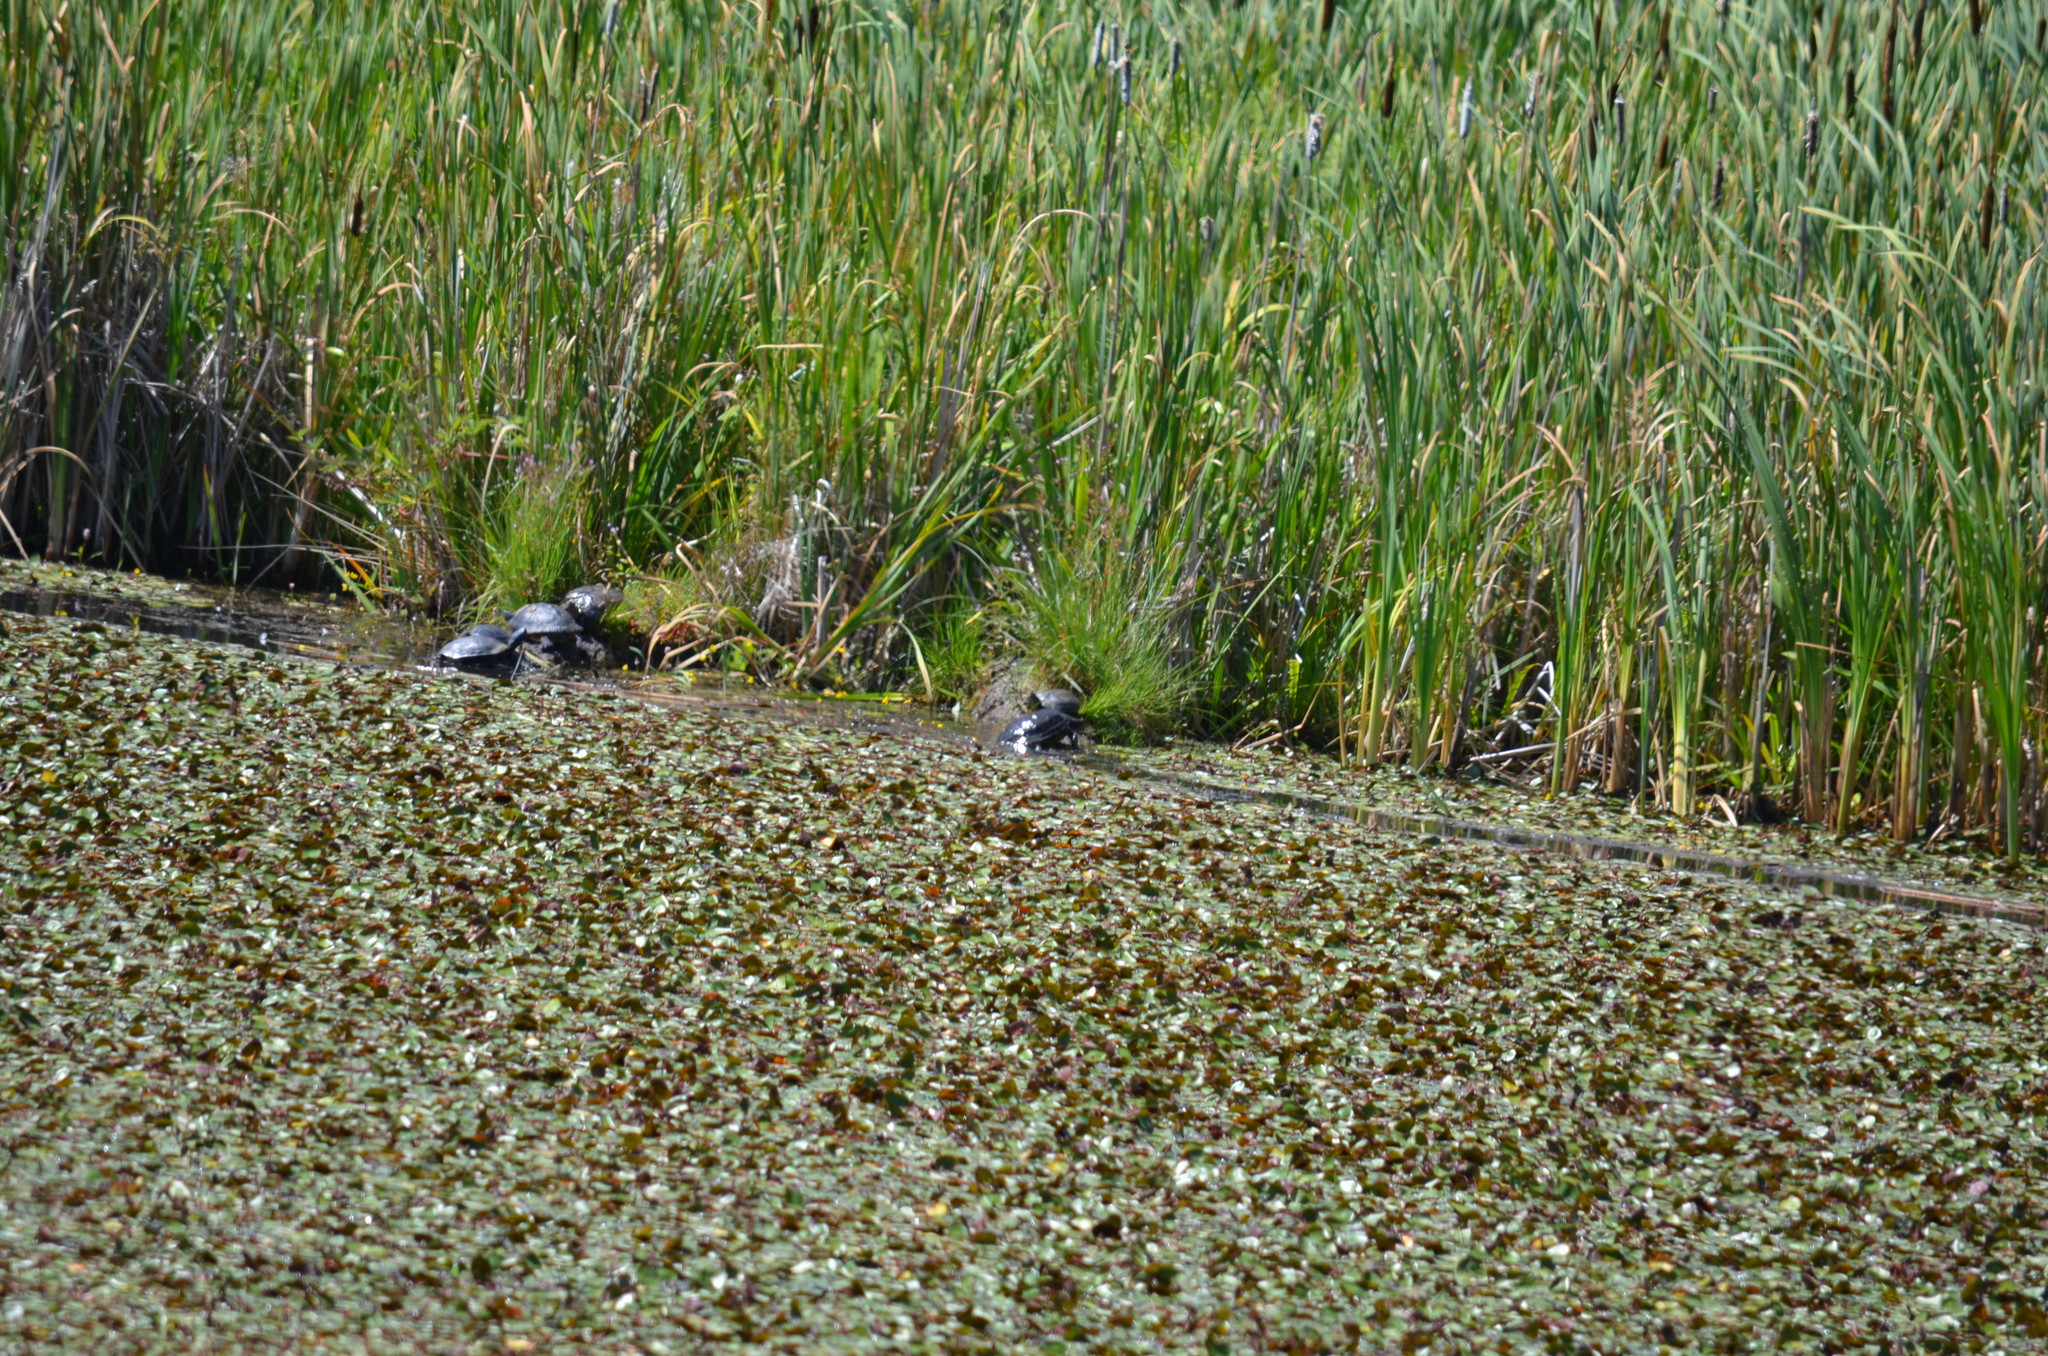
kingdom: Animalia
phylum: Chordata
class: Testudines
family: Emydidae
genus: Trachemys
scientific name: Trachemys scripta
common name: Slider
